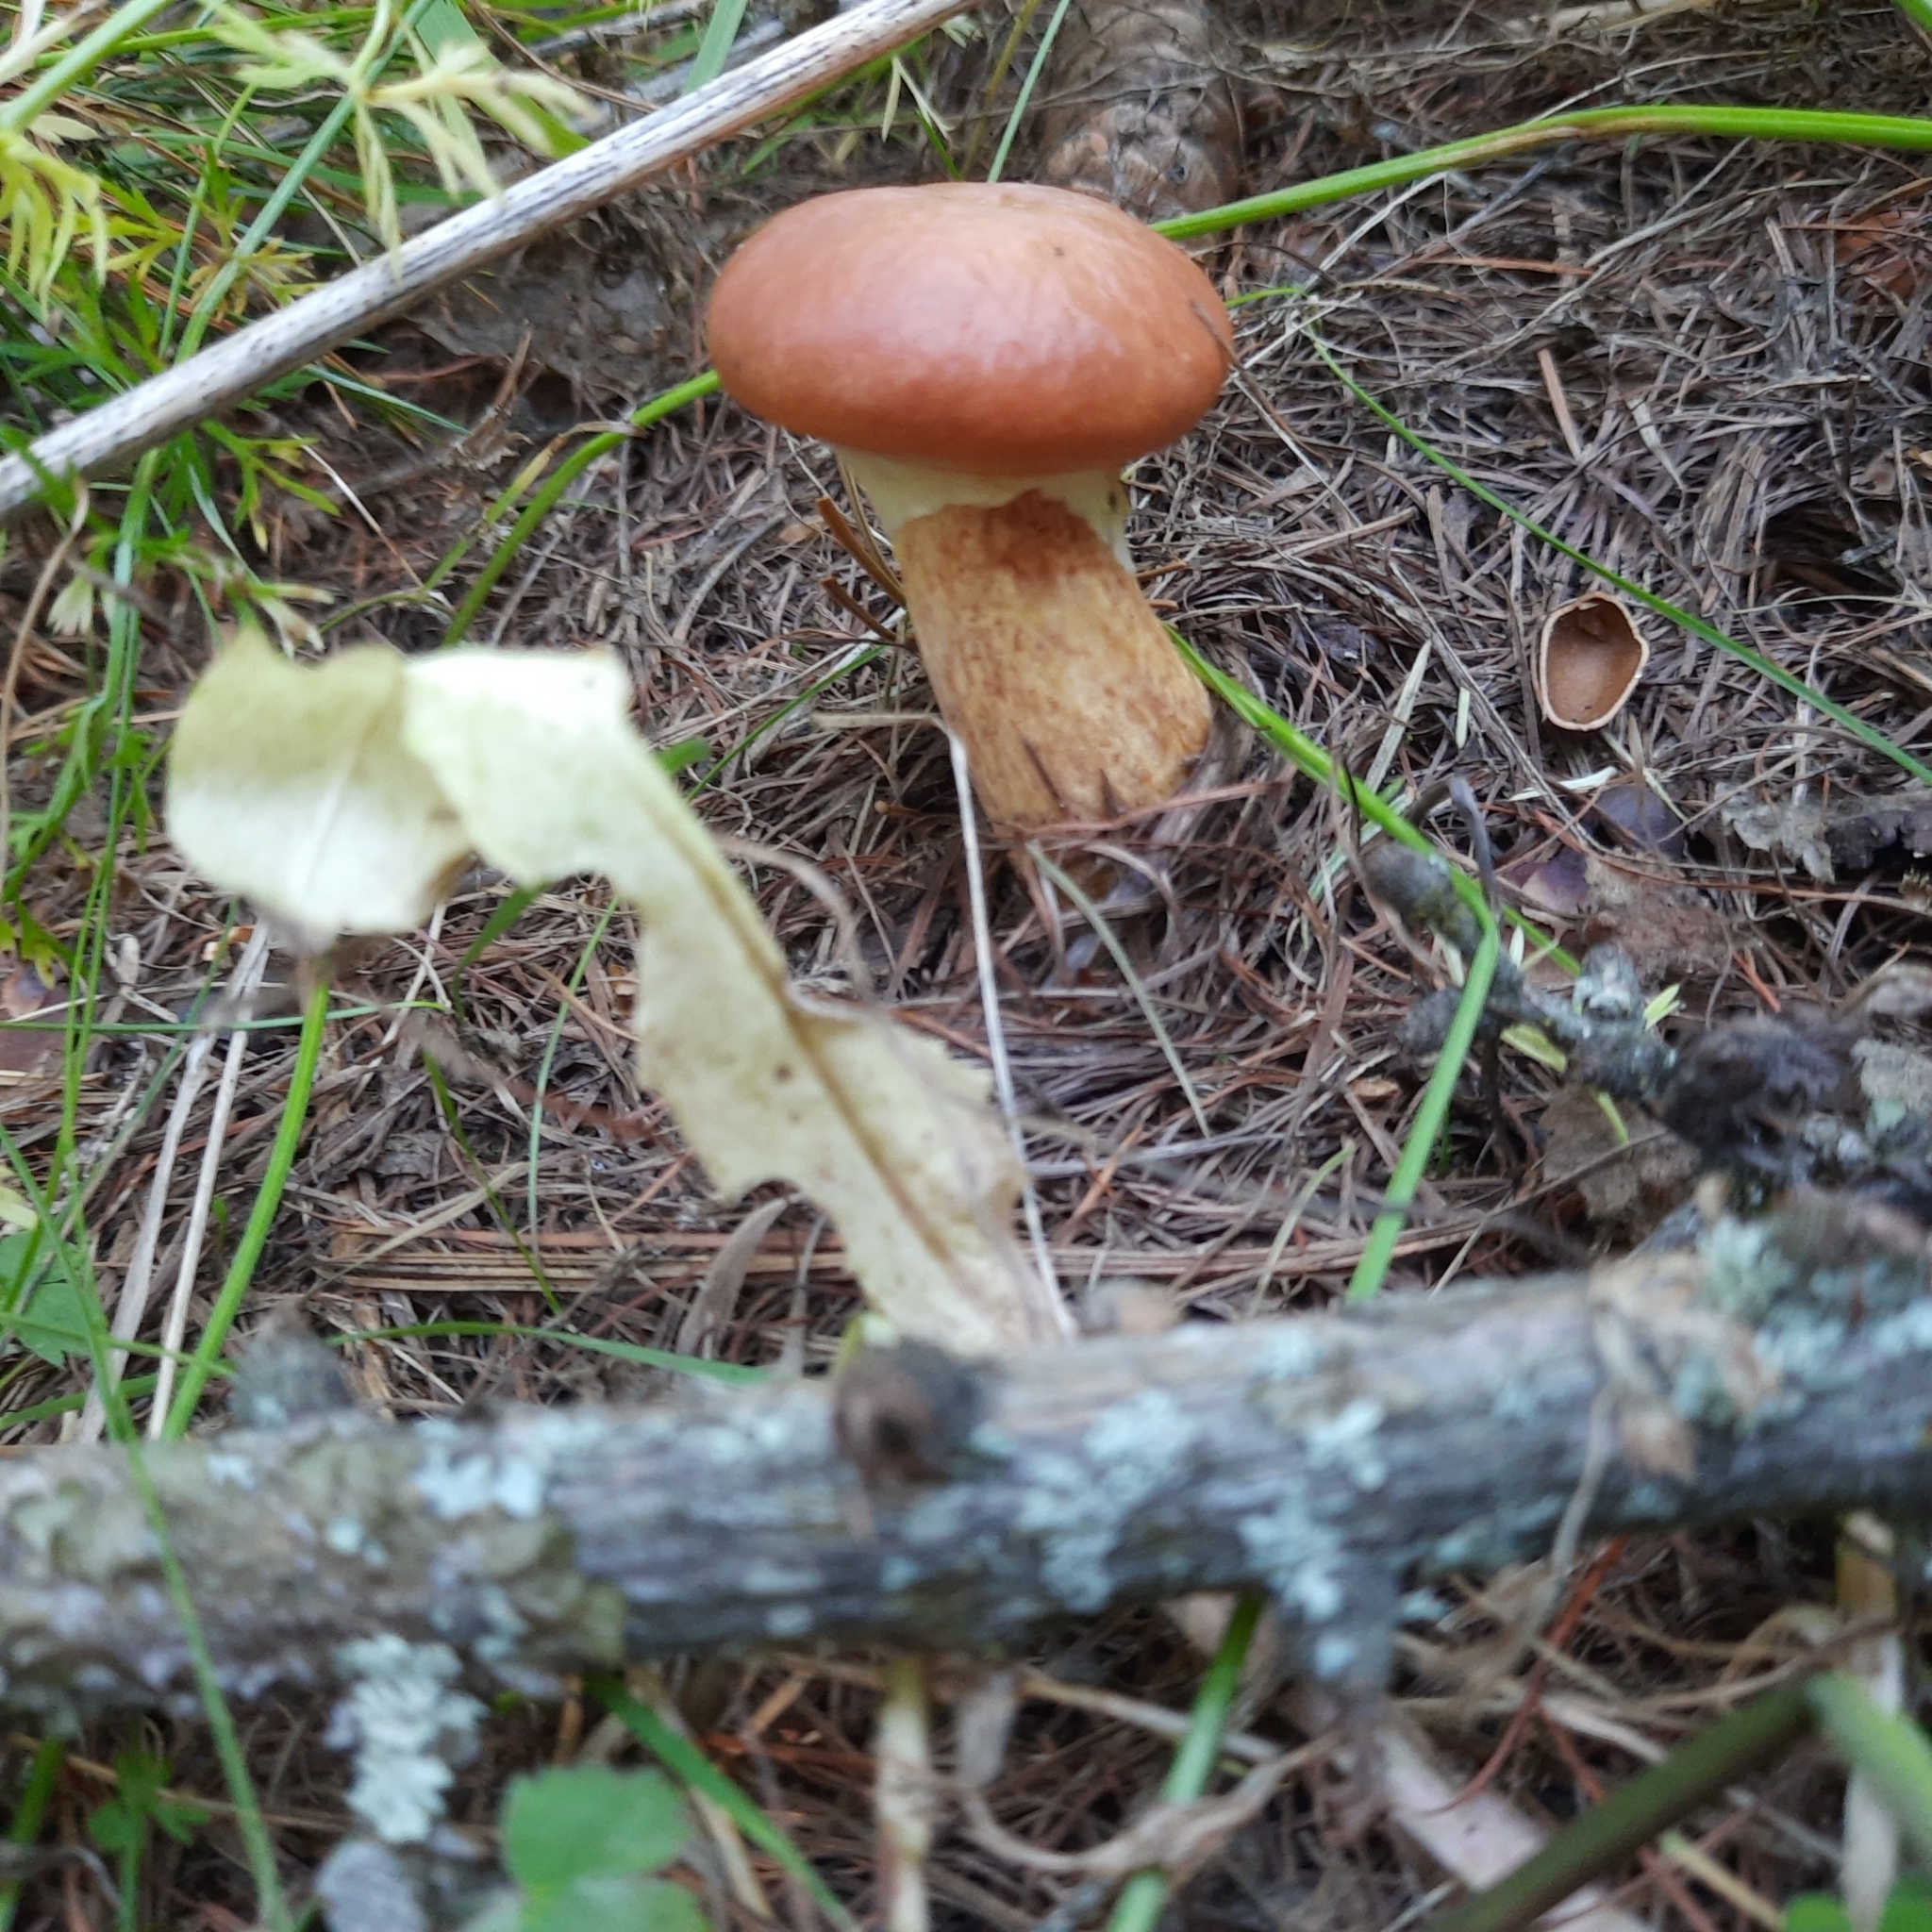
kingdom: Fungi
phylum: Basidiomycota
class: Agaricomycetes
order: Boletales
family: Suillaceae
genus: Suillus
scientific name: Suillus grevillei
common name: Larch bolete
